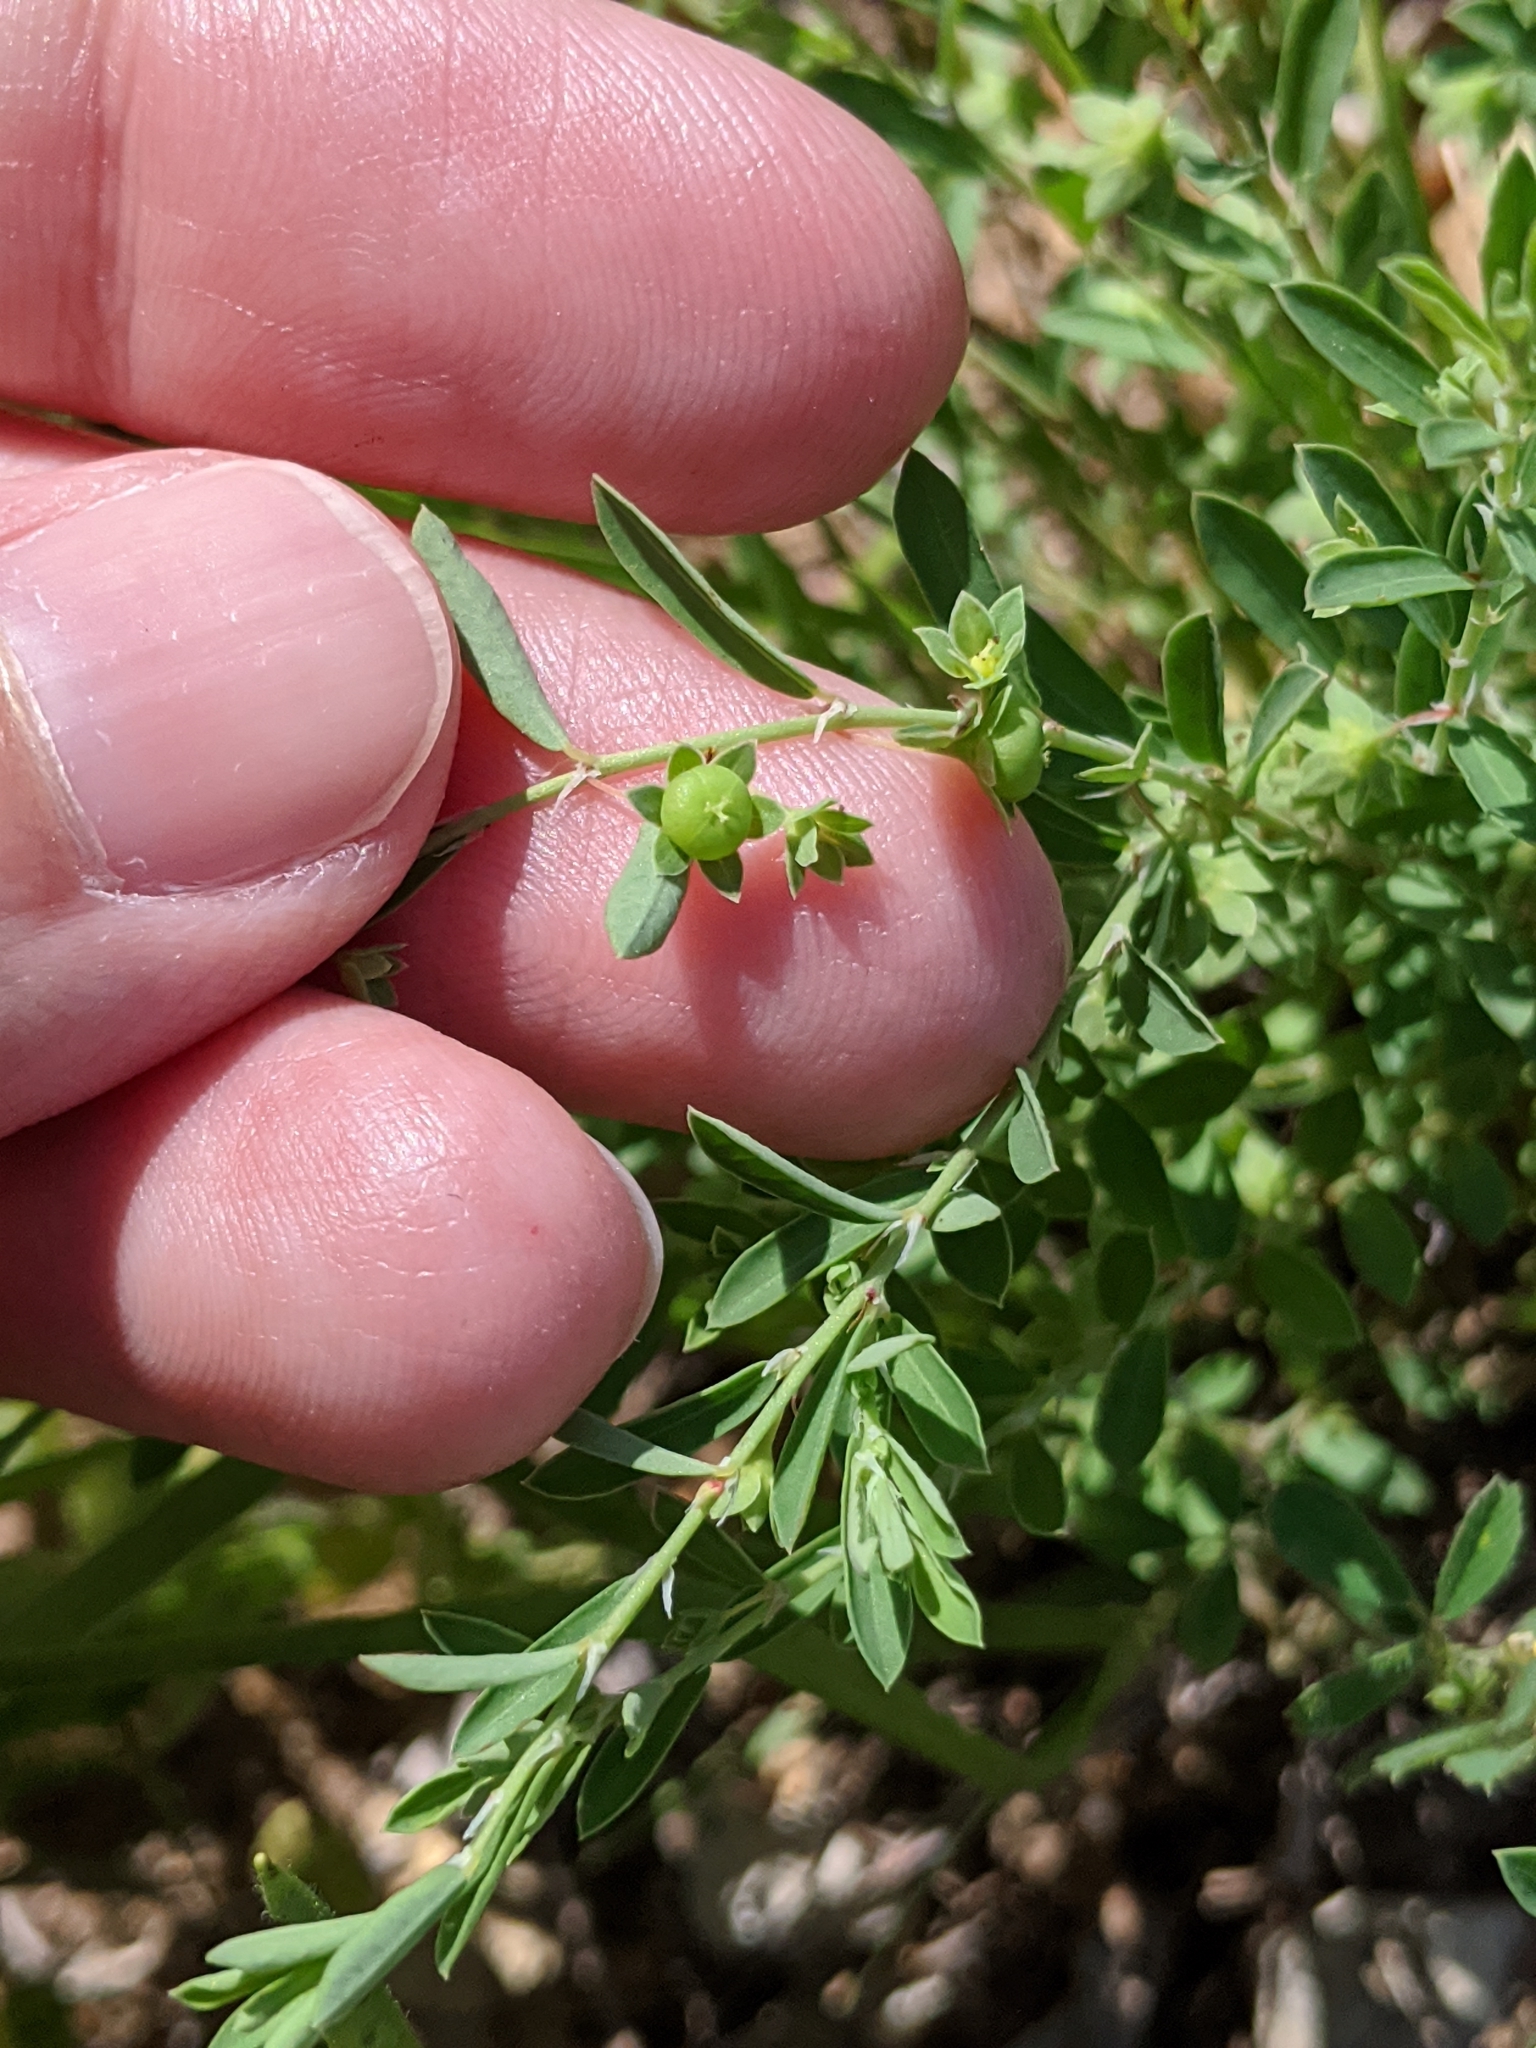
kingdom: Plantae
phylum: Tracheophyta
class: Magnoliopsida
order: Malpighiales
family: Phyllanthaceae
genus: Phyllanthus
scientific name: Phyllanthus polygonoides
